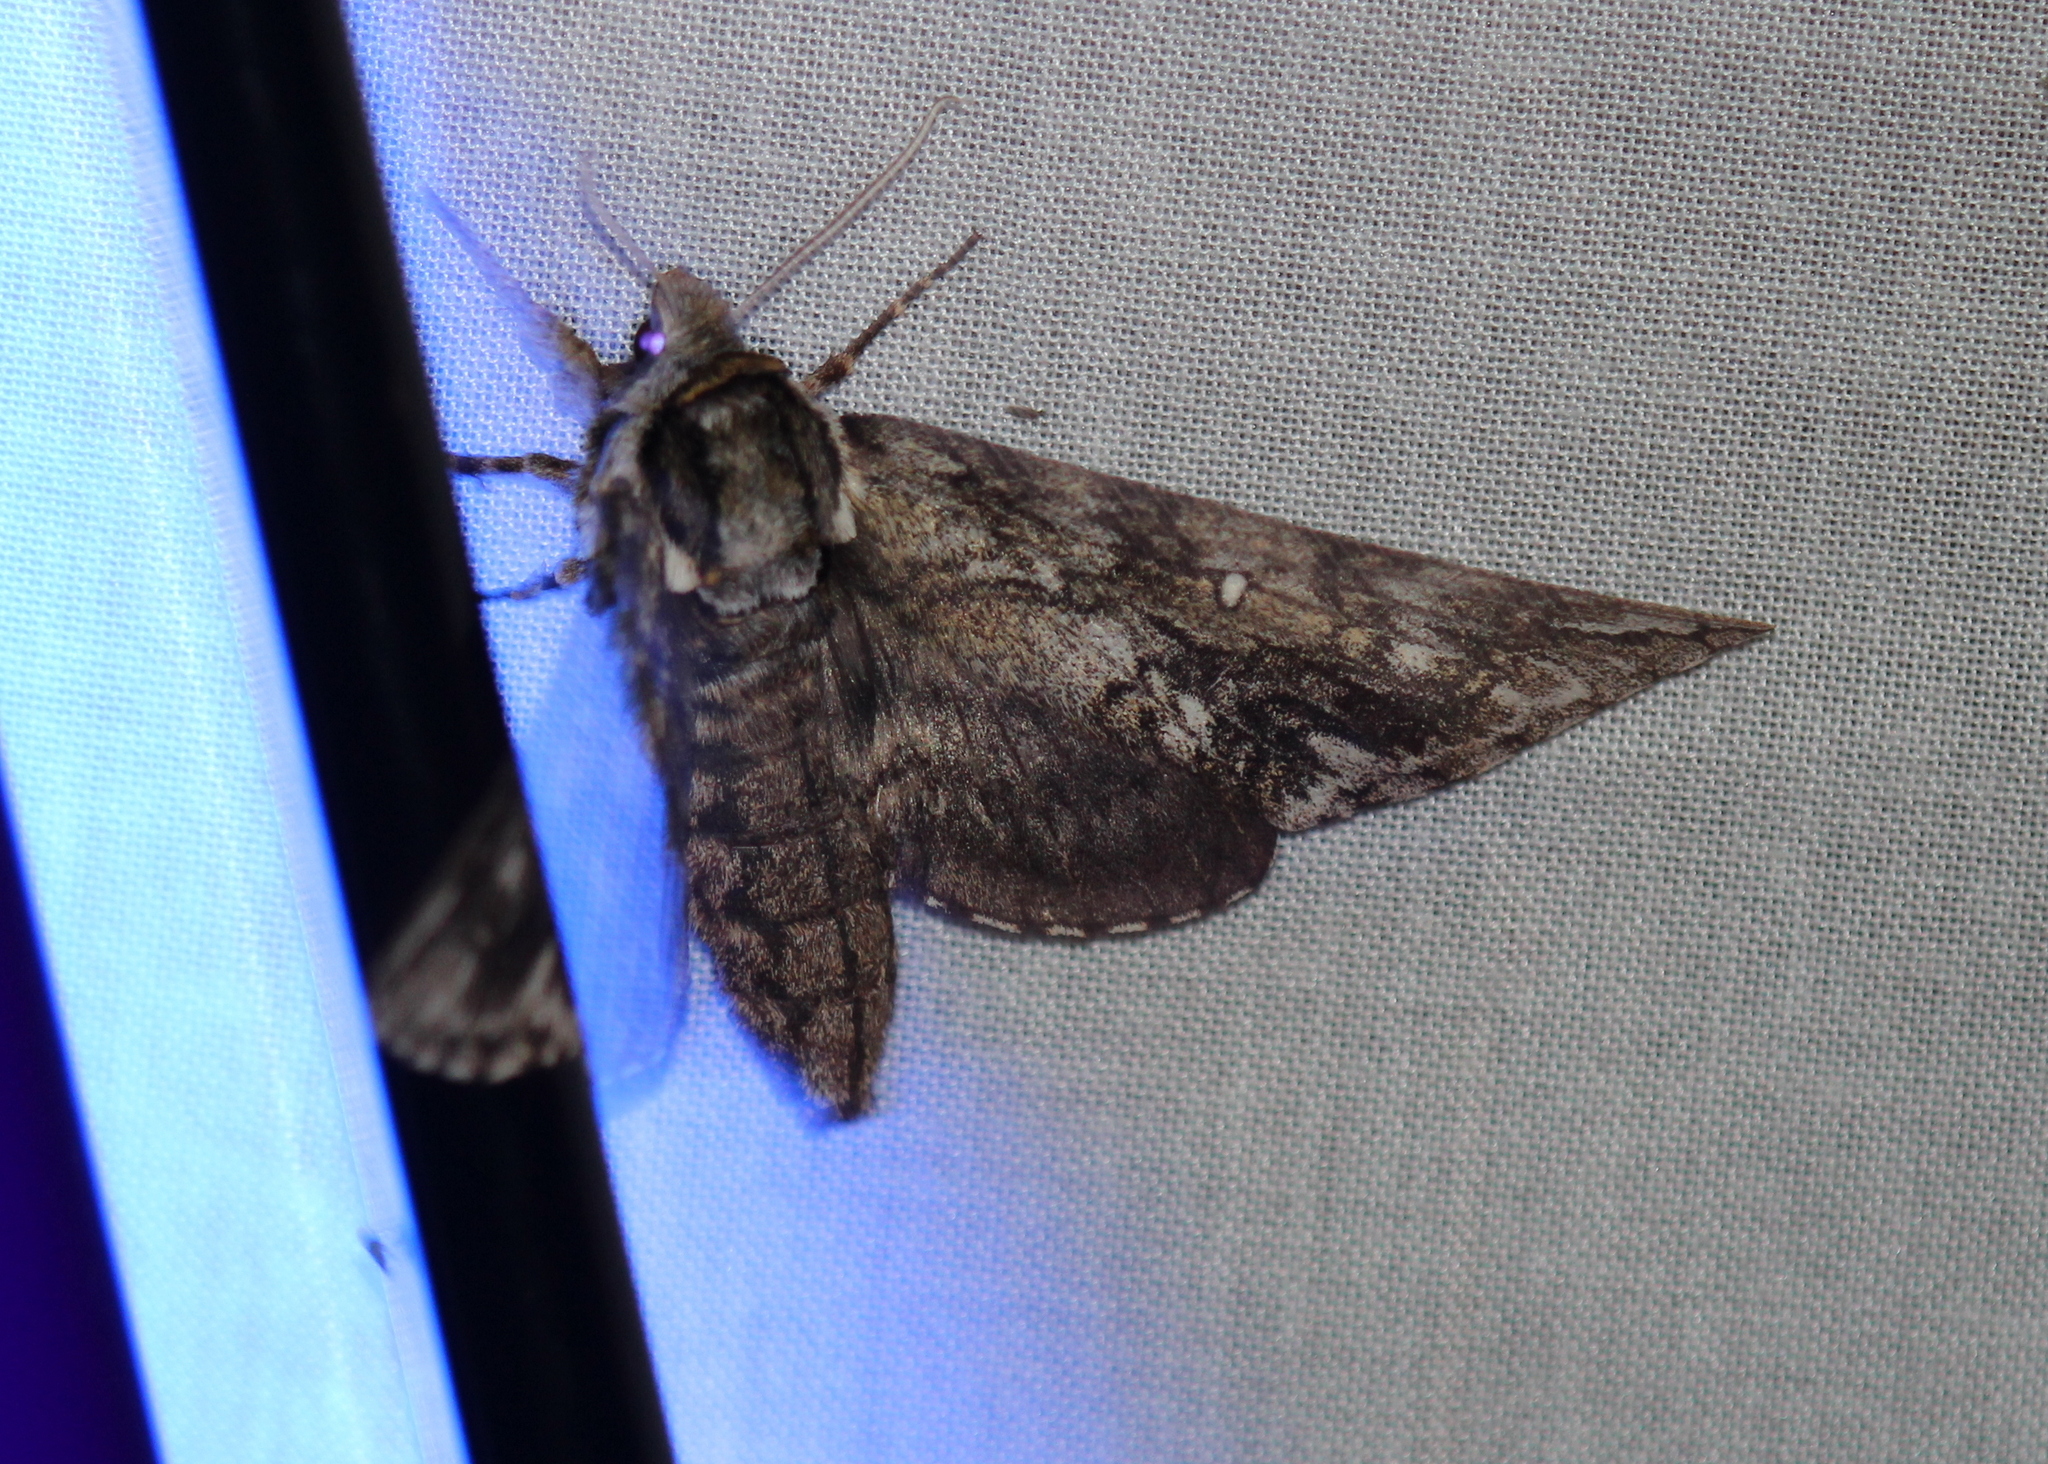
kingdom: Animalia
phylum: Arthropoda
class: Insecta
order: Lepidoptera
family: Sphingidae
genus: Ceratomia
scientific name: Ceratomia undulosa
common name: Waved sphinx
